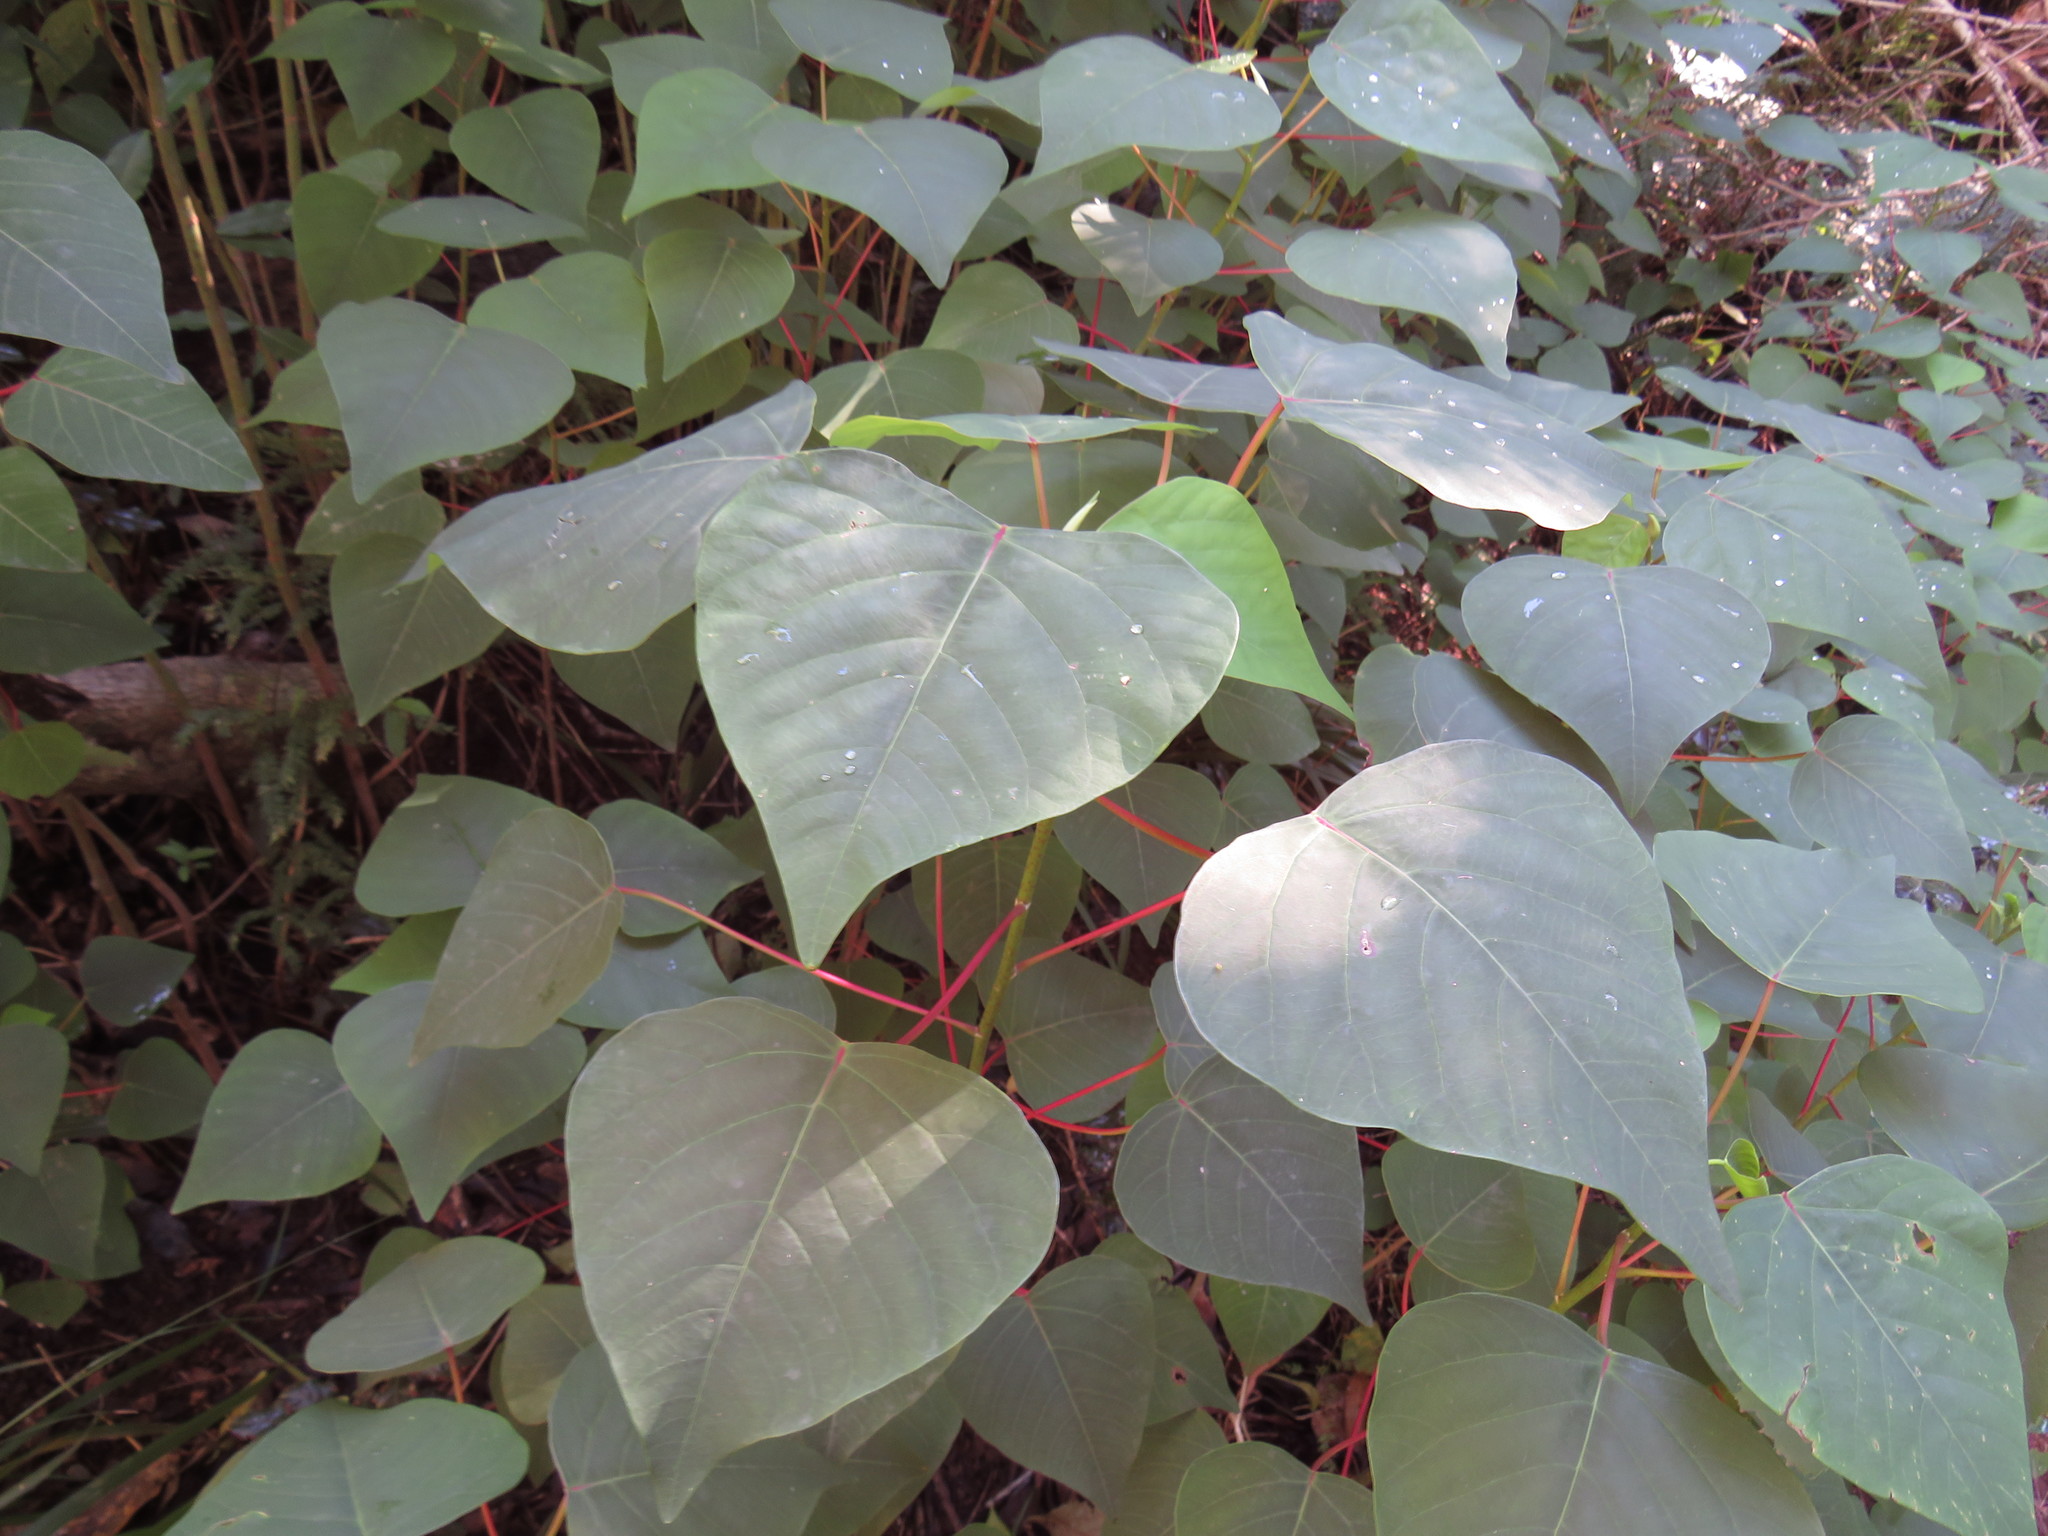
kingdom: Plantae
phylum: Tracheophyta
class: Magnoliopsida
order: Malpighiales
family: Euphorbiaceae
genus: Homalanthus
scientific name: Homalanthus populifolius
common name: Queensland poplar
